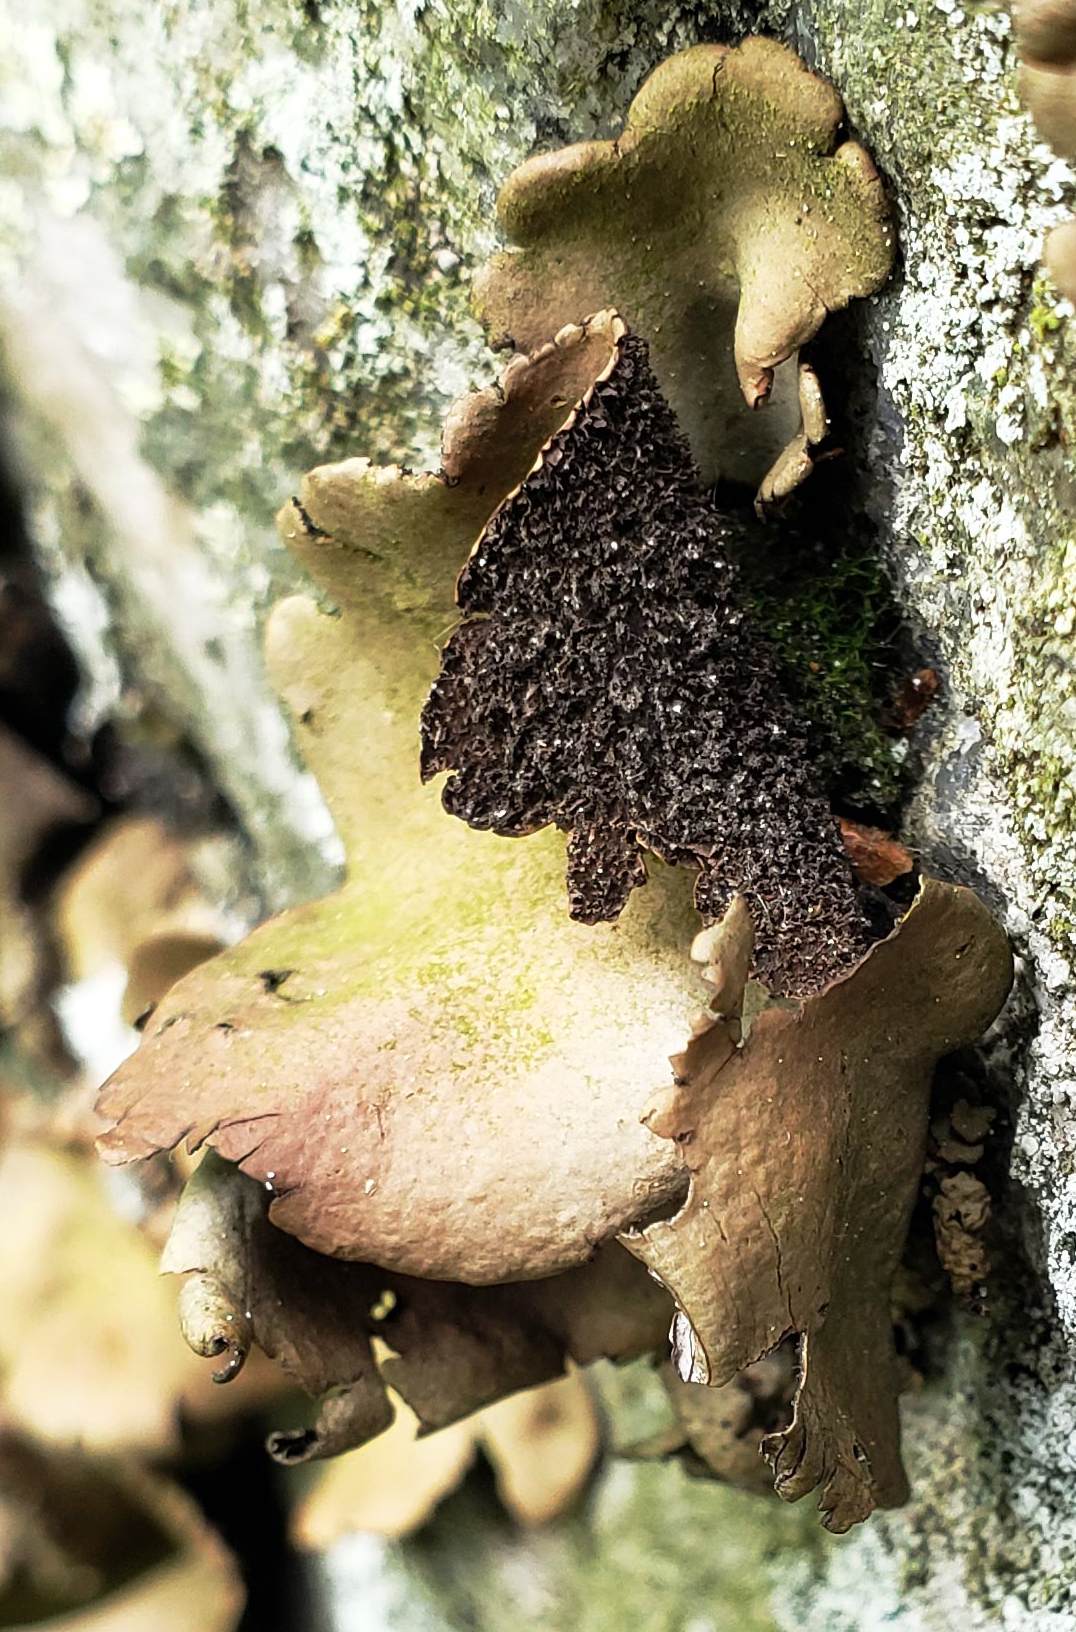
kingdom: Fungi
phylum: Ascomycota
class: Lecanoromycetes
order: Umbilicariales
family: Umbilicariaceae
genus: Umbilicaria
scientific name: Umbilicaria mammulata
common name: Smooth rock tripe
